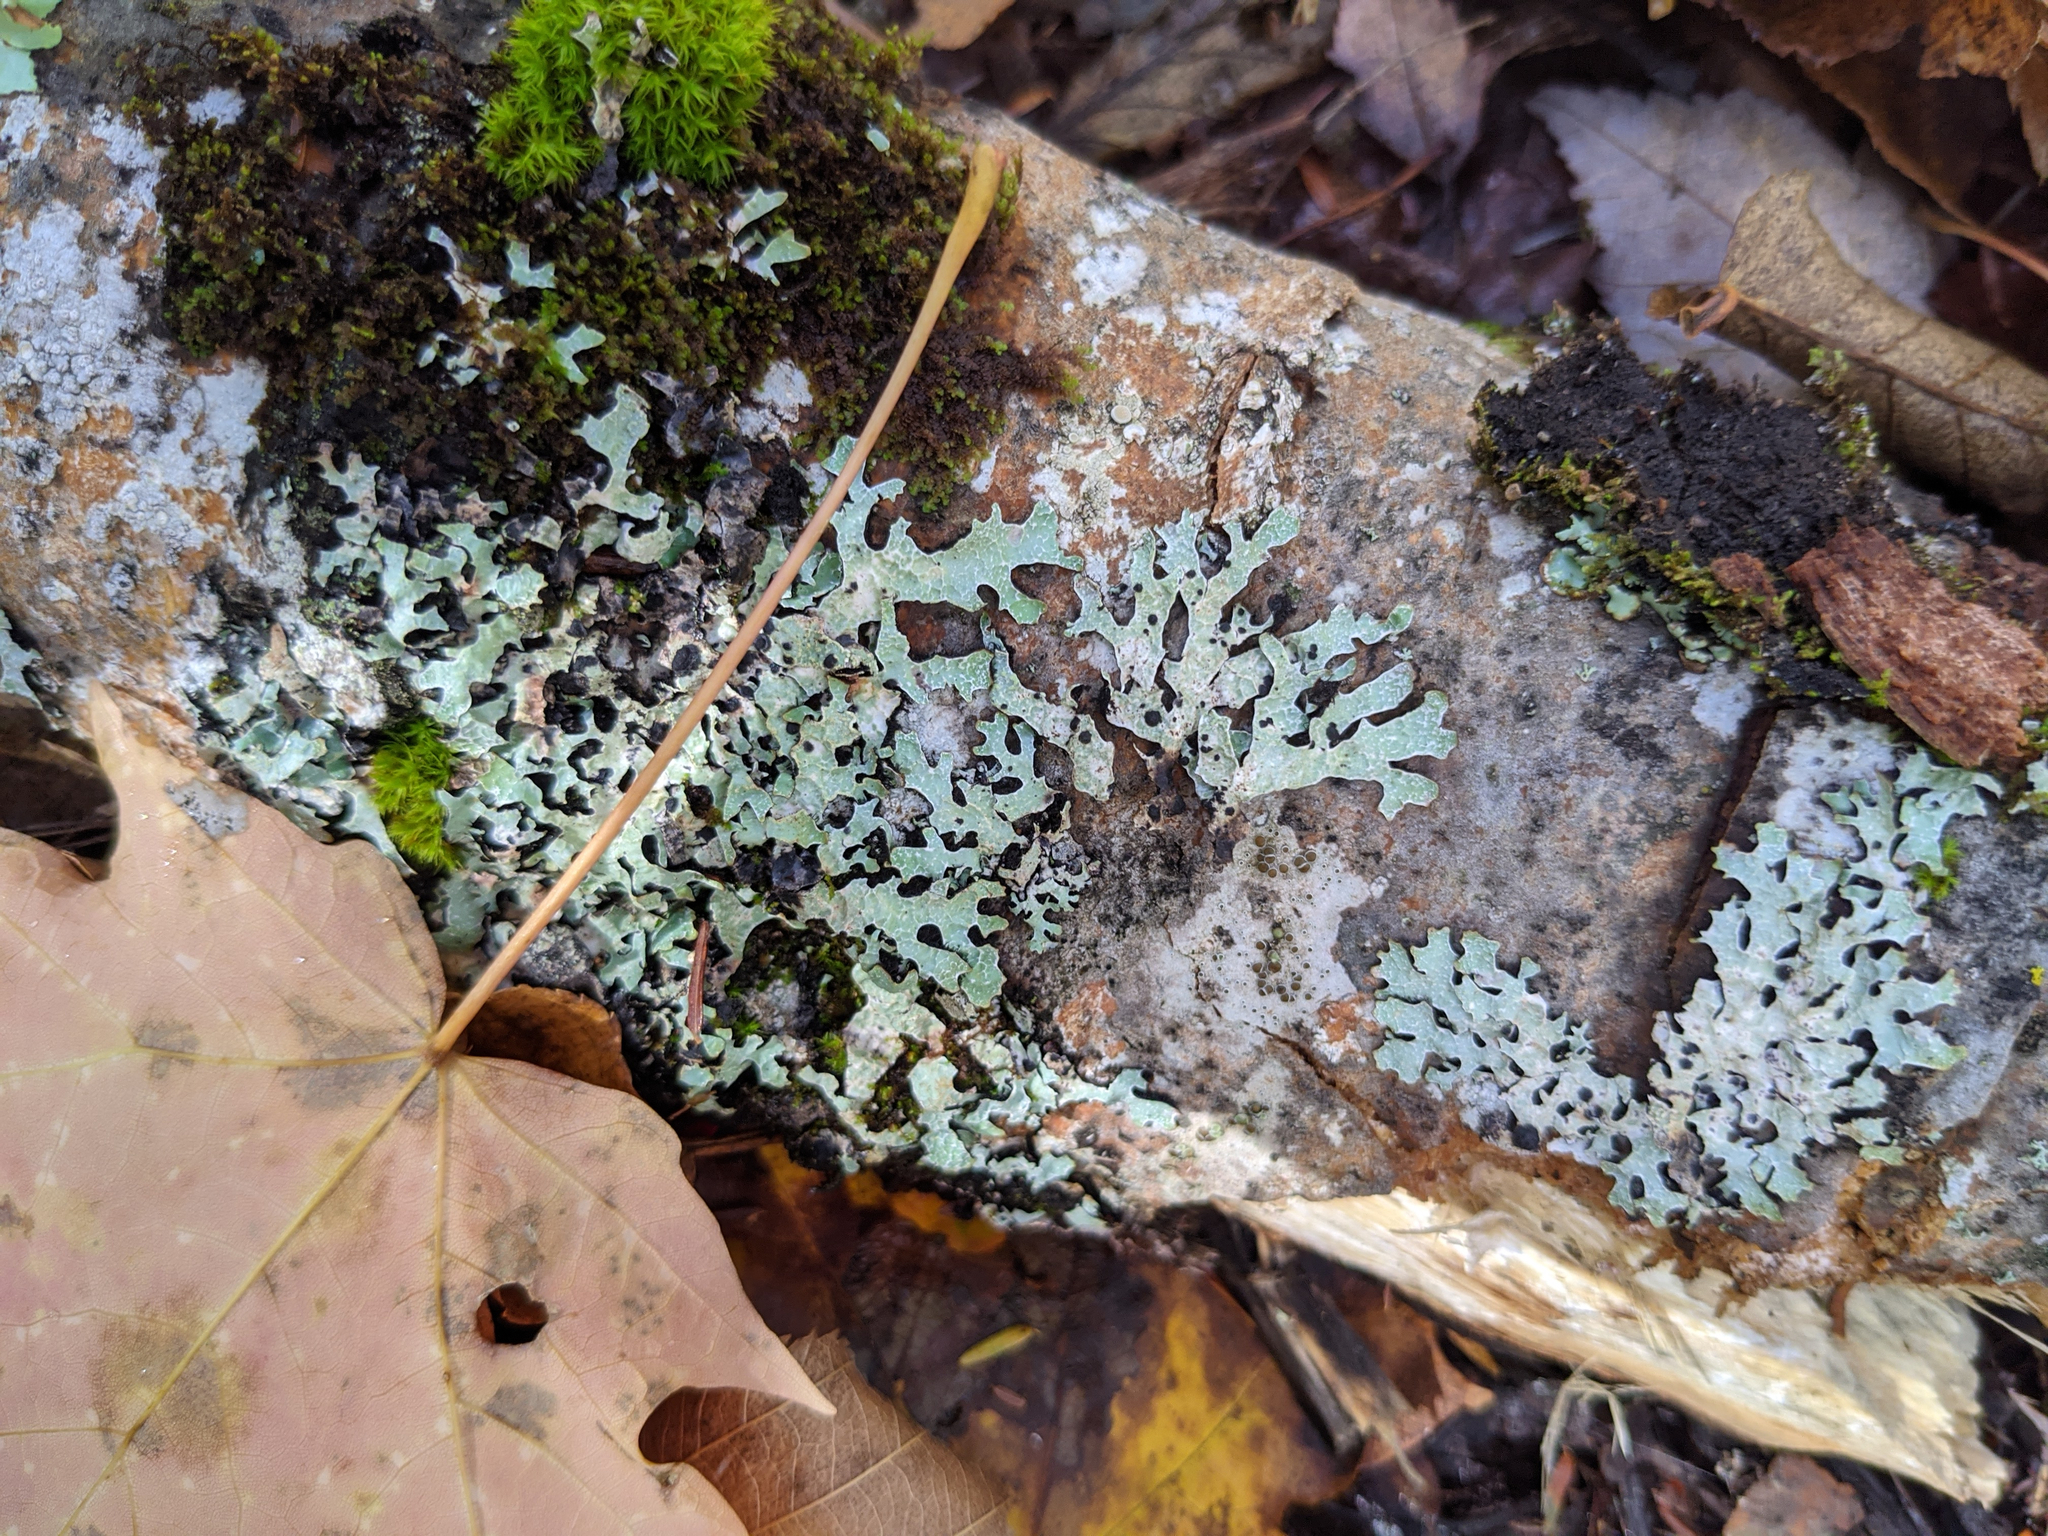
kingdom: Fungi
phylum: Ascomycota
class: Lecanoromycetes
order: Lecanorales
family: Parmeliaceae
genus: Parmelia
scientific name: Parmelia sulcata
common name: Netted shield lichen
